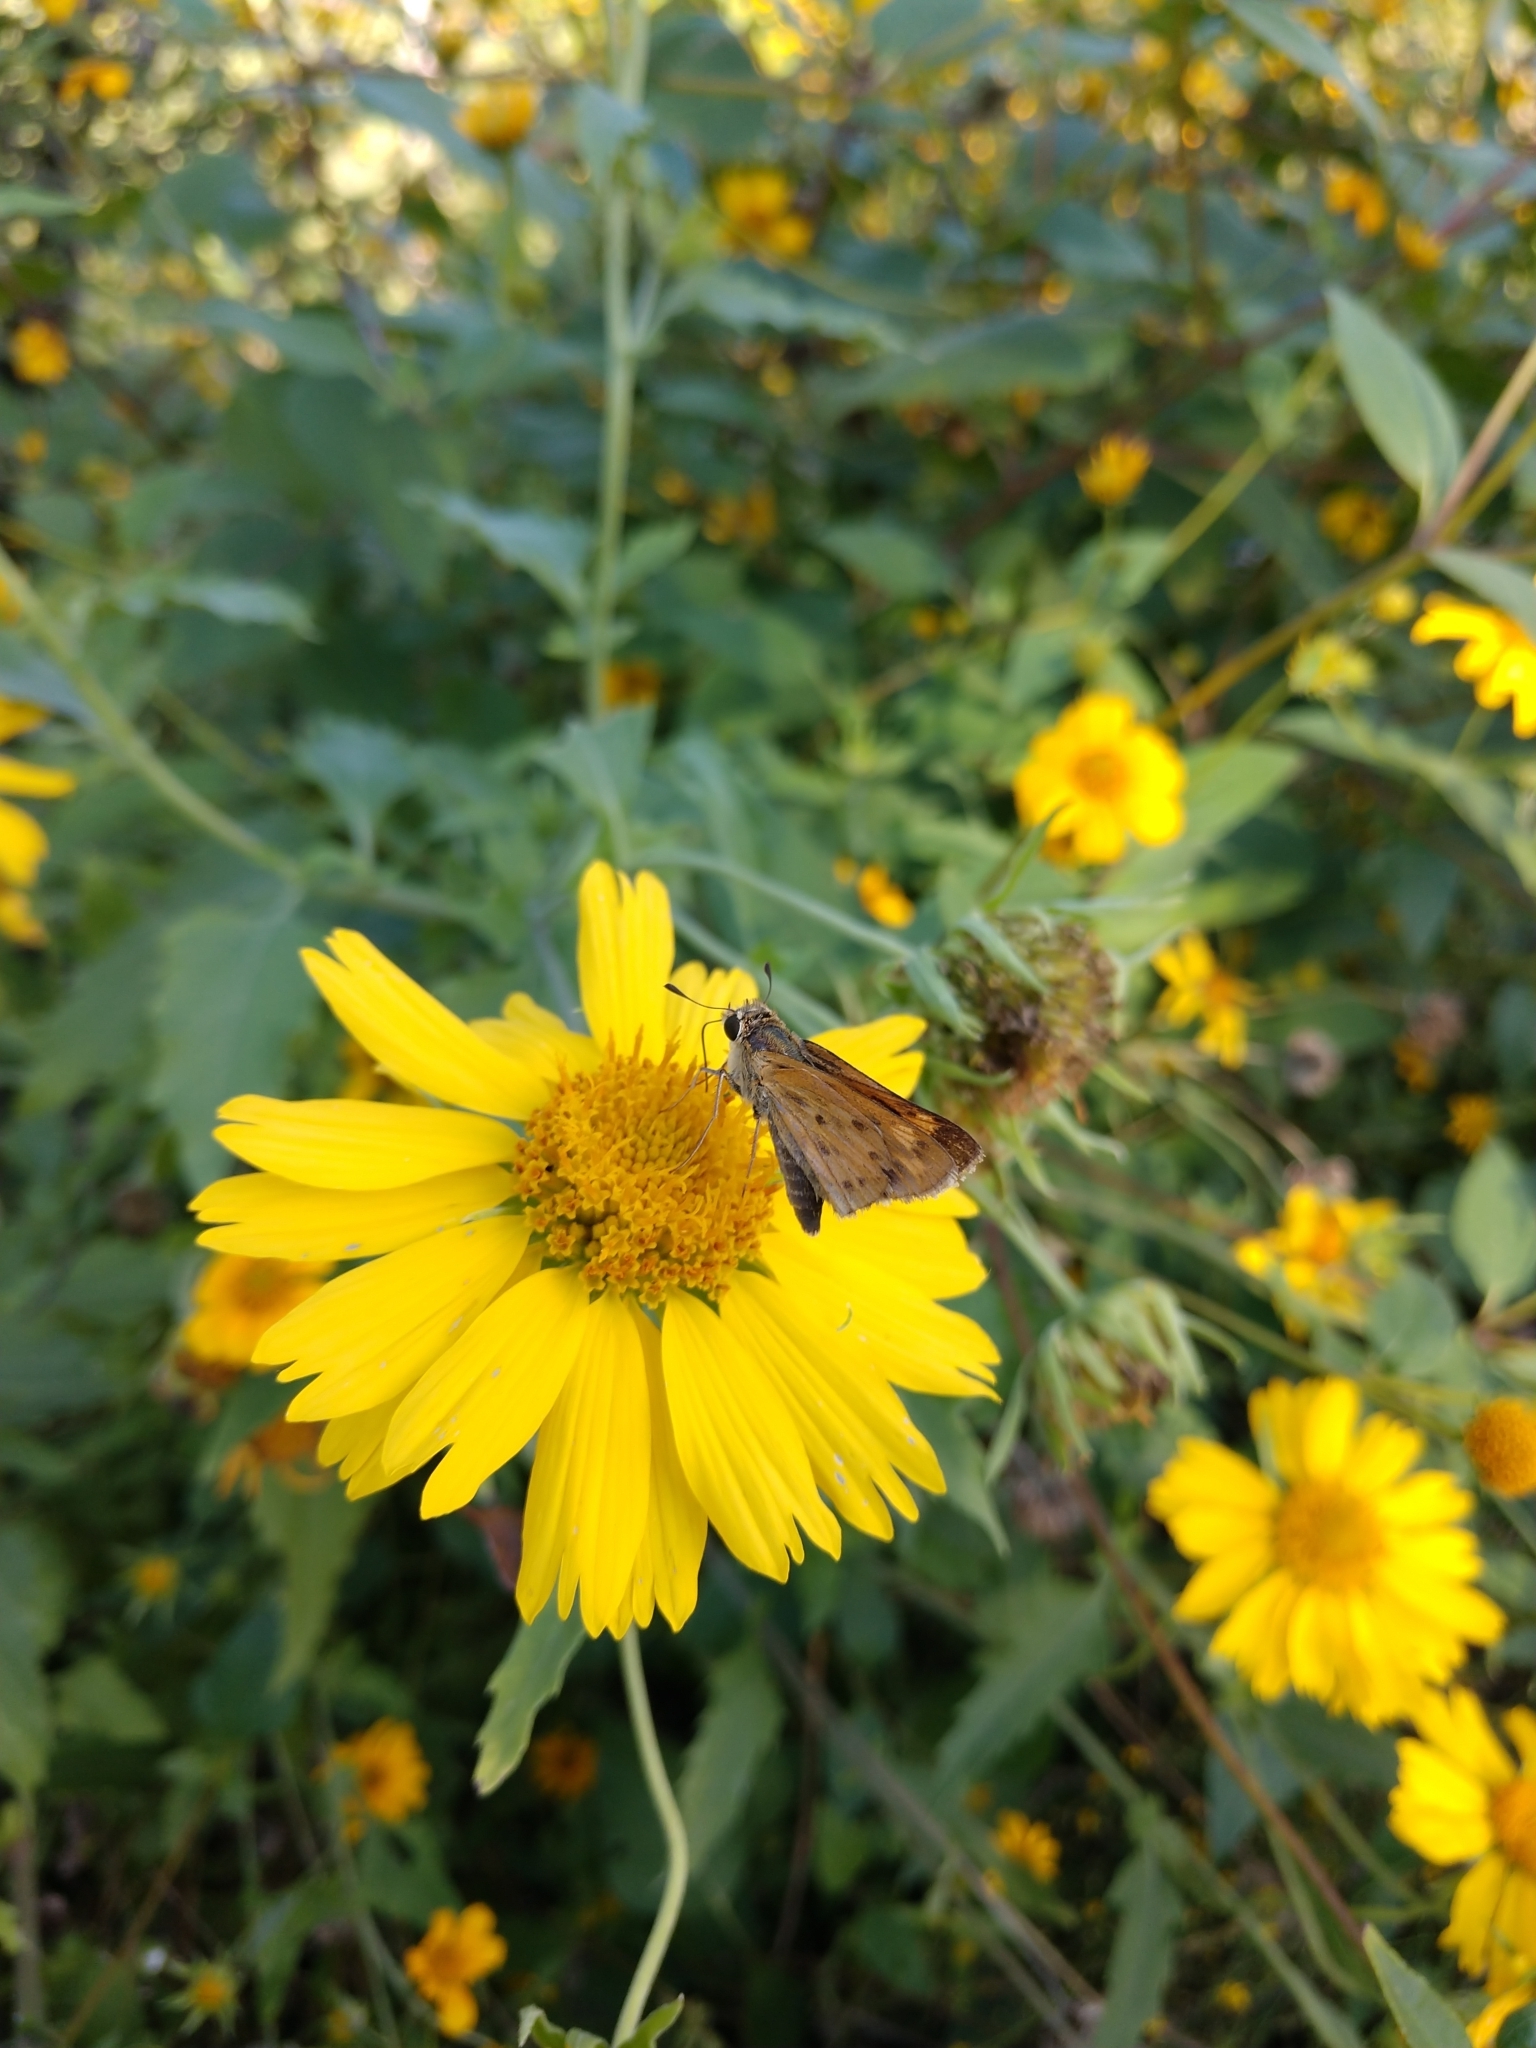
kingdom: Animalia
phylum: Arthropoda
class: Insecta
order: Lepidoptera
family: Hesperiidae
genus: Hylephila
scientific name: Hylephila phyleus
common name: Fiery skipper
